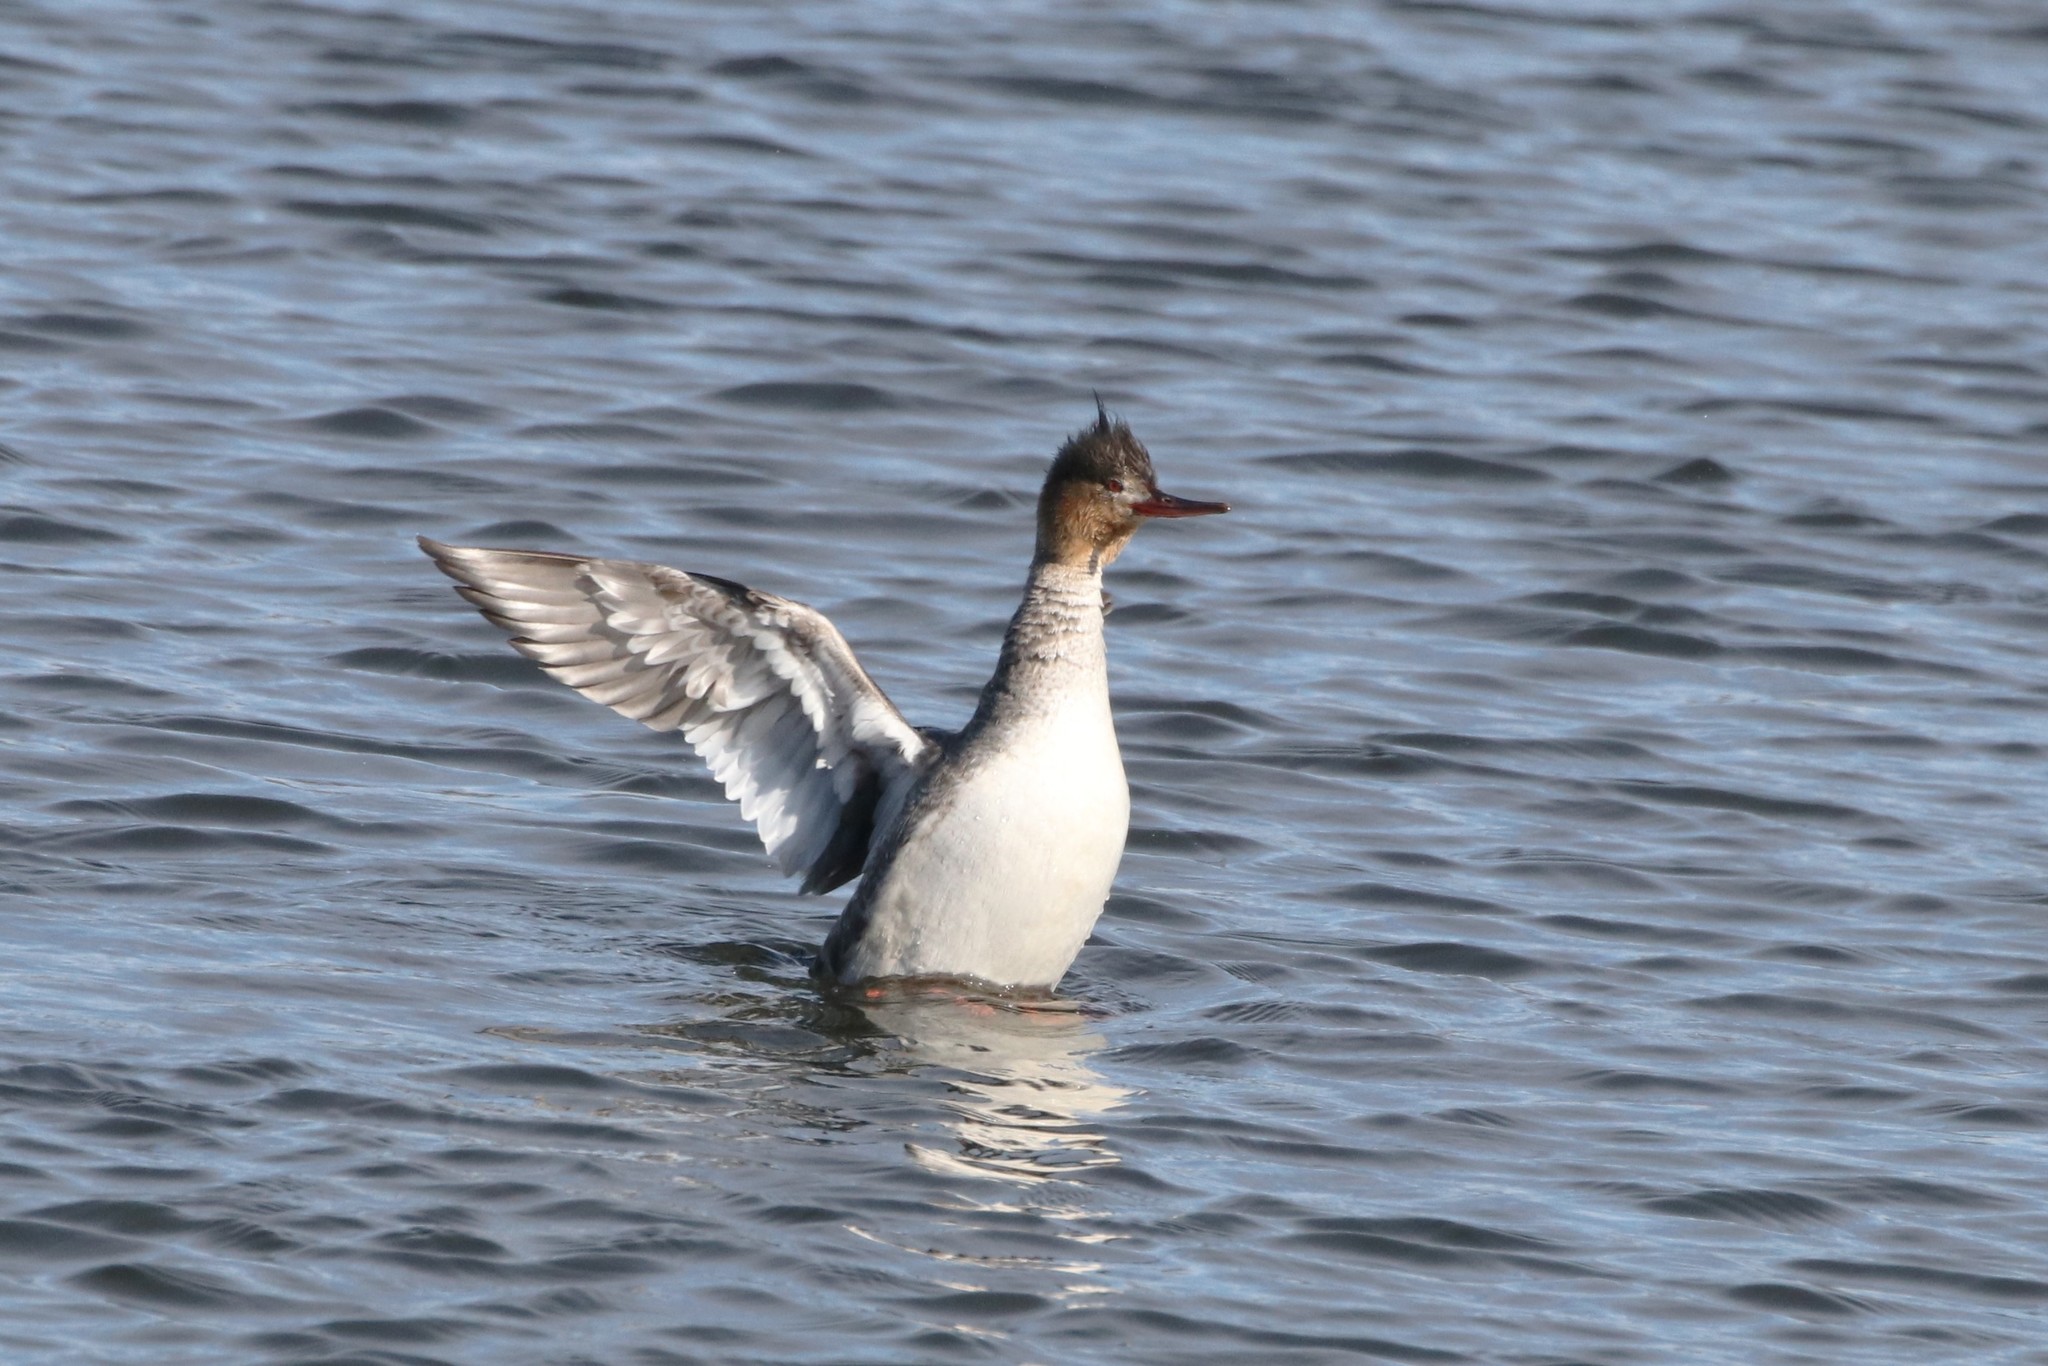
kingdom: Animalia
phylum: Chordata
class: Aves
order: Anseriformes
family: Anatidae
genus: Mergus
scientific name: Mergus serrator
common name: Red-breasted merganser
